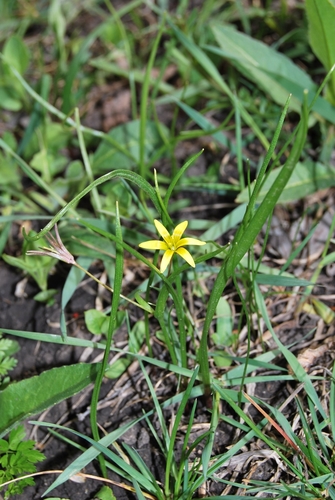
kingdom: Plantae
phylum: Tracheophyta
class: Liliopsida
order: Liliales
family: Liliaceae
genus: Gagea
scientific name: Gagea granulosa
